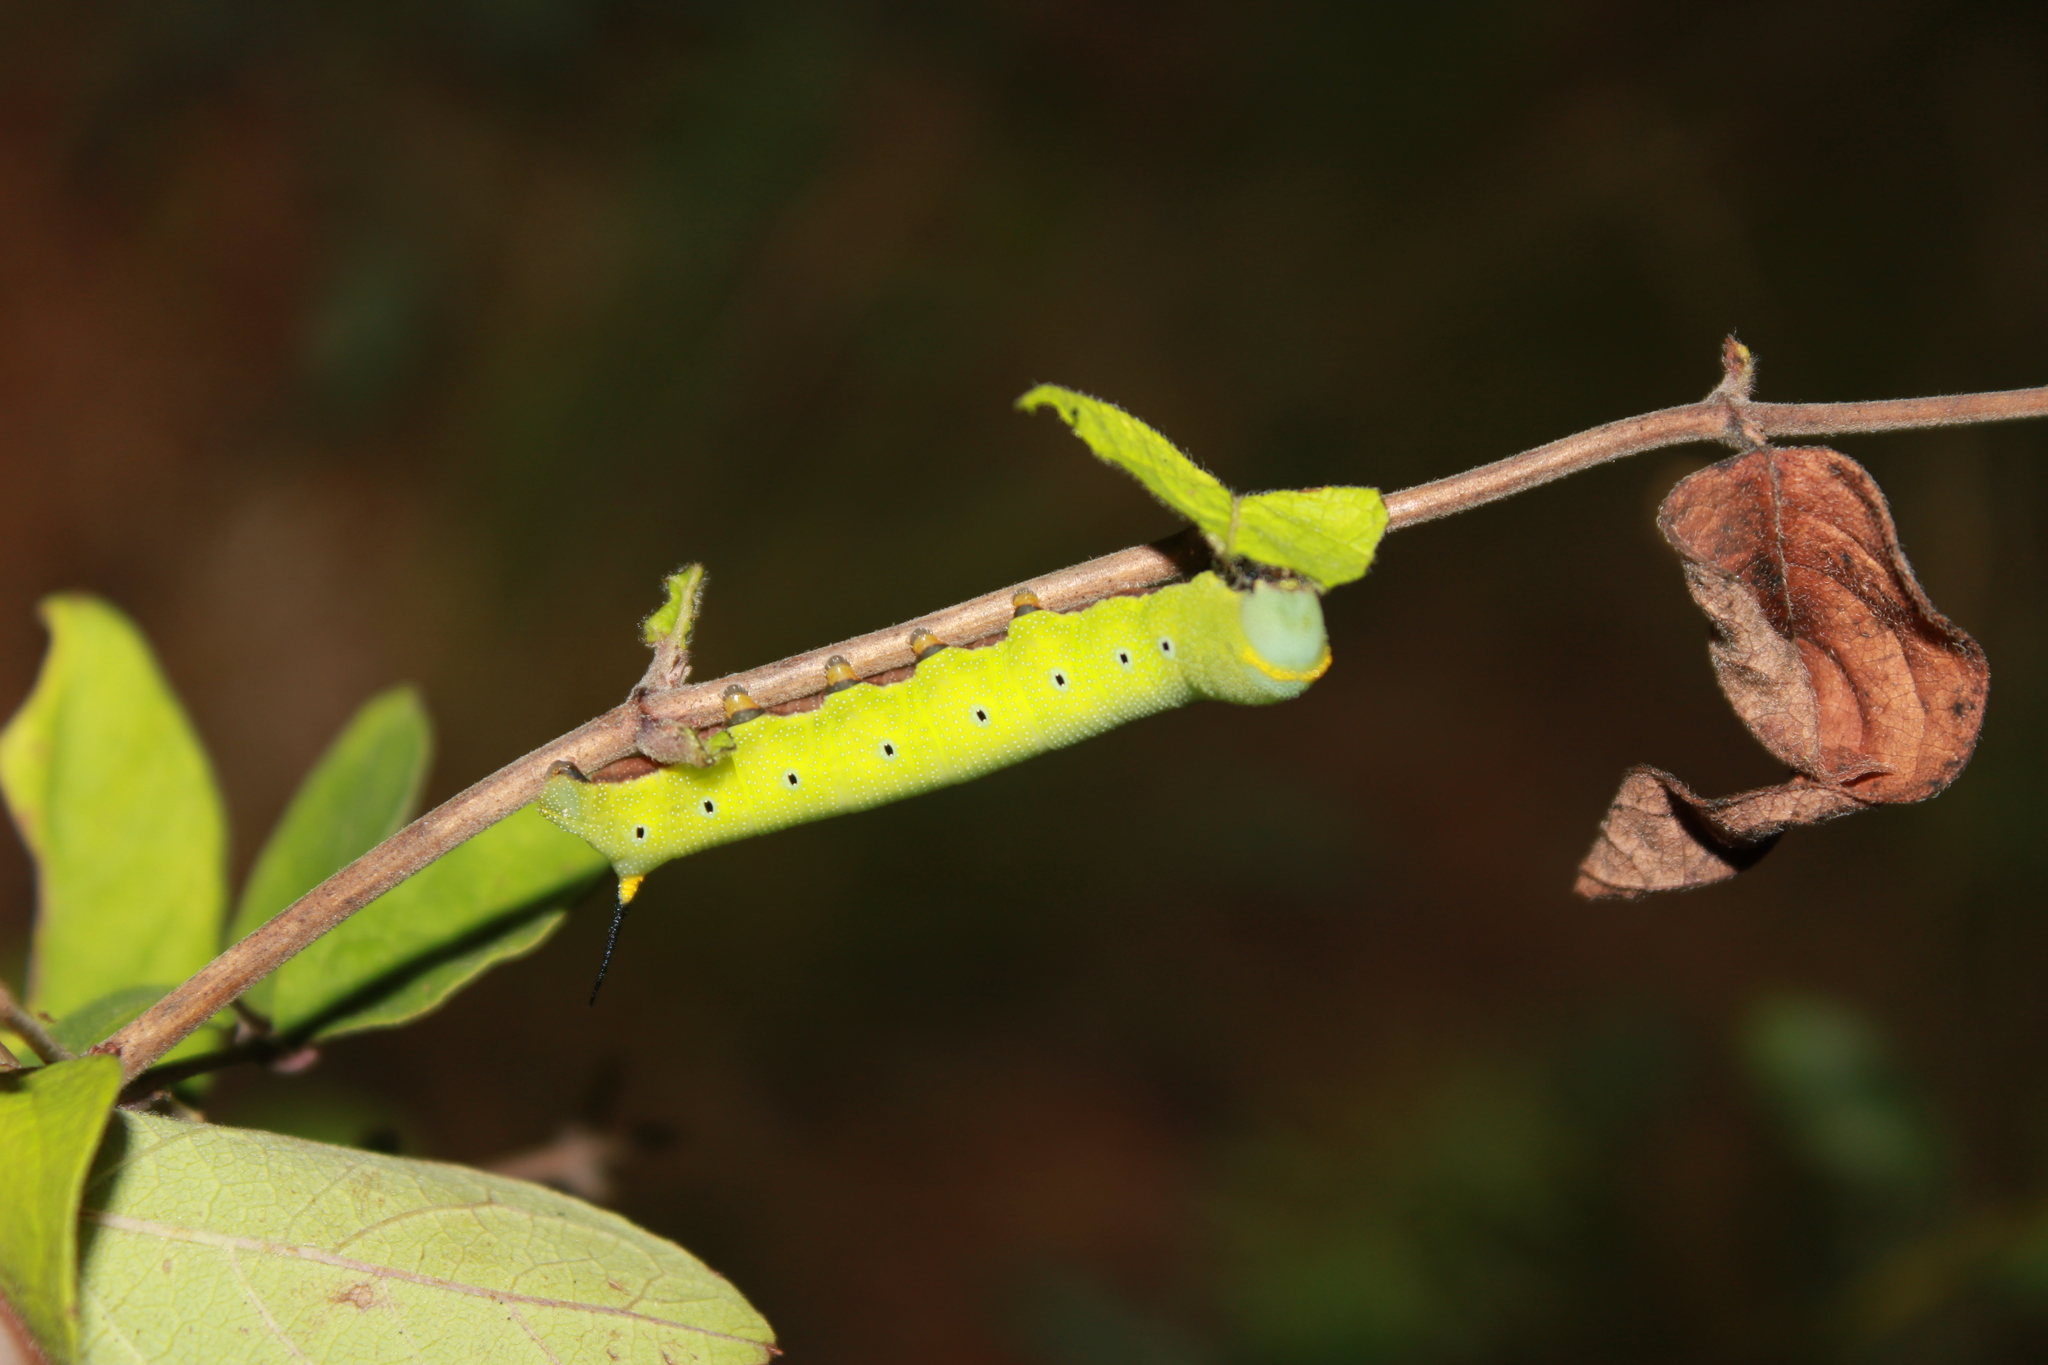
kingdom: Animalia
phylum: Arthropoda
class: Insecta
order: Lepidoptera
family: Sphingidae
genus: Hemaris
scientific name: Hemaris diffinis
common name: Bumblebee moth
